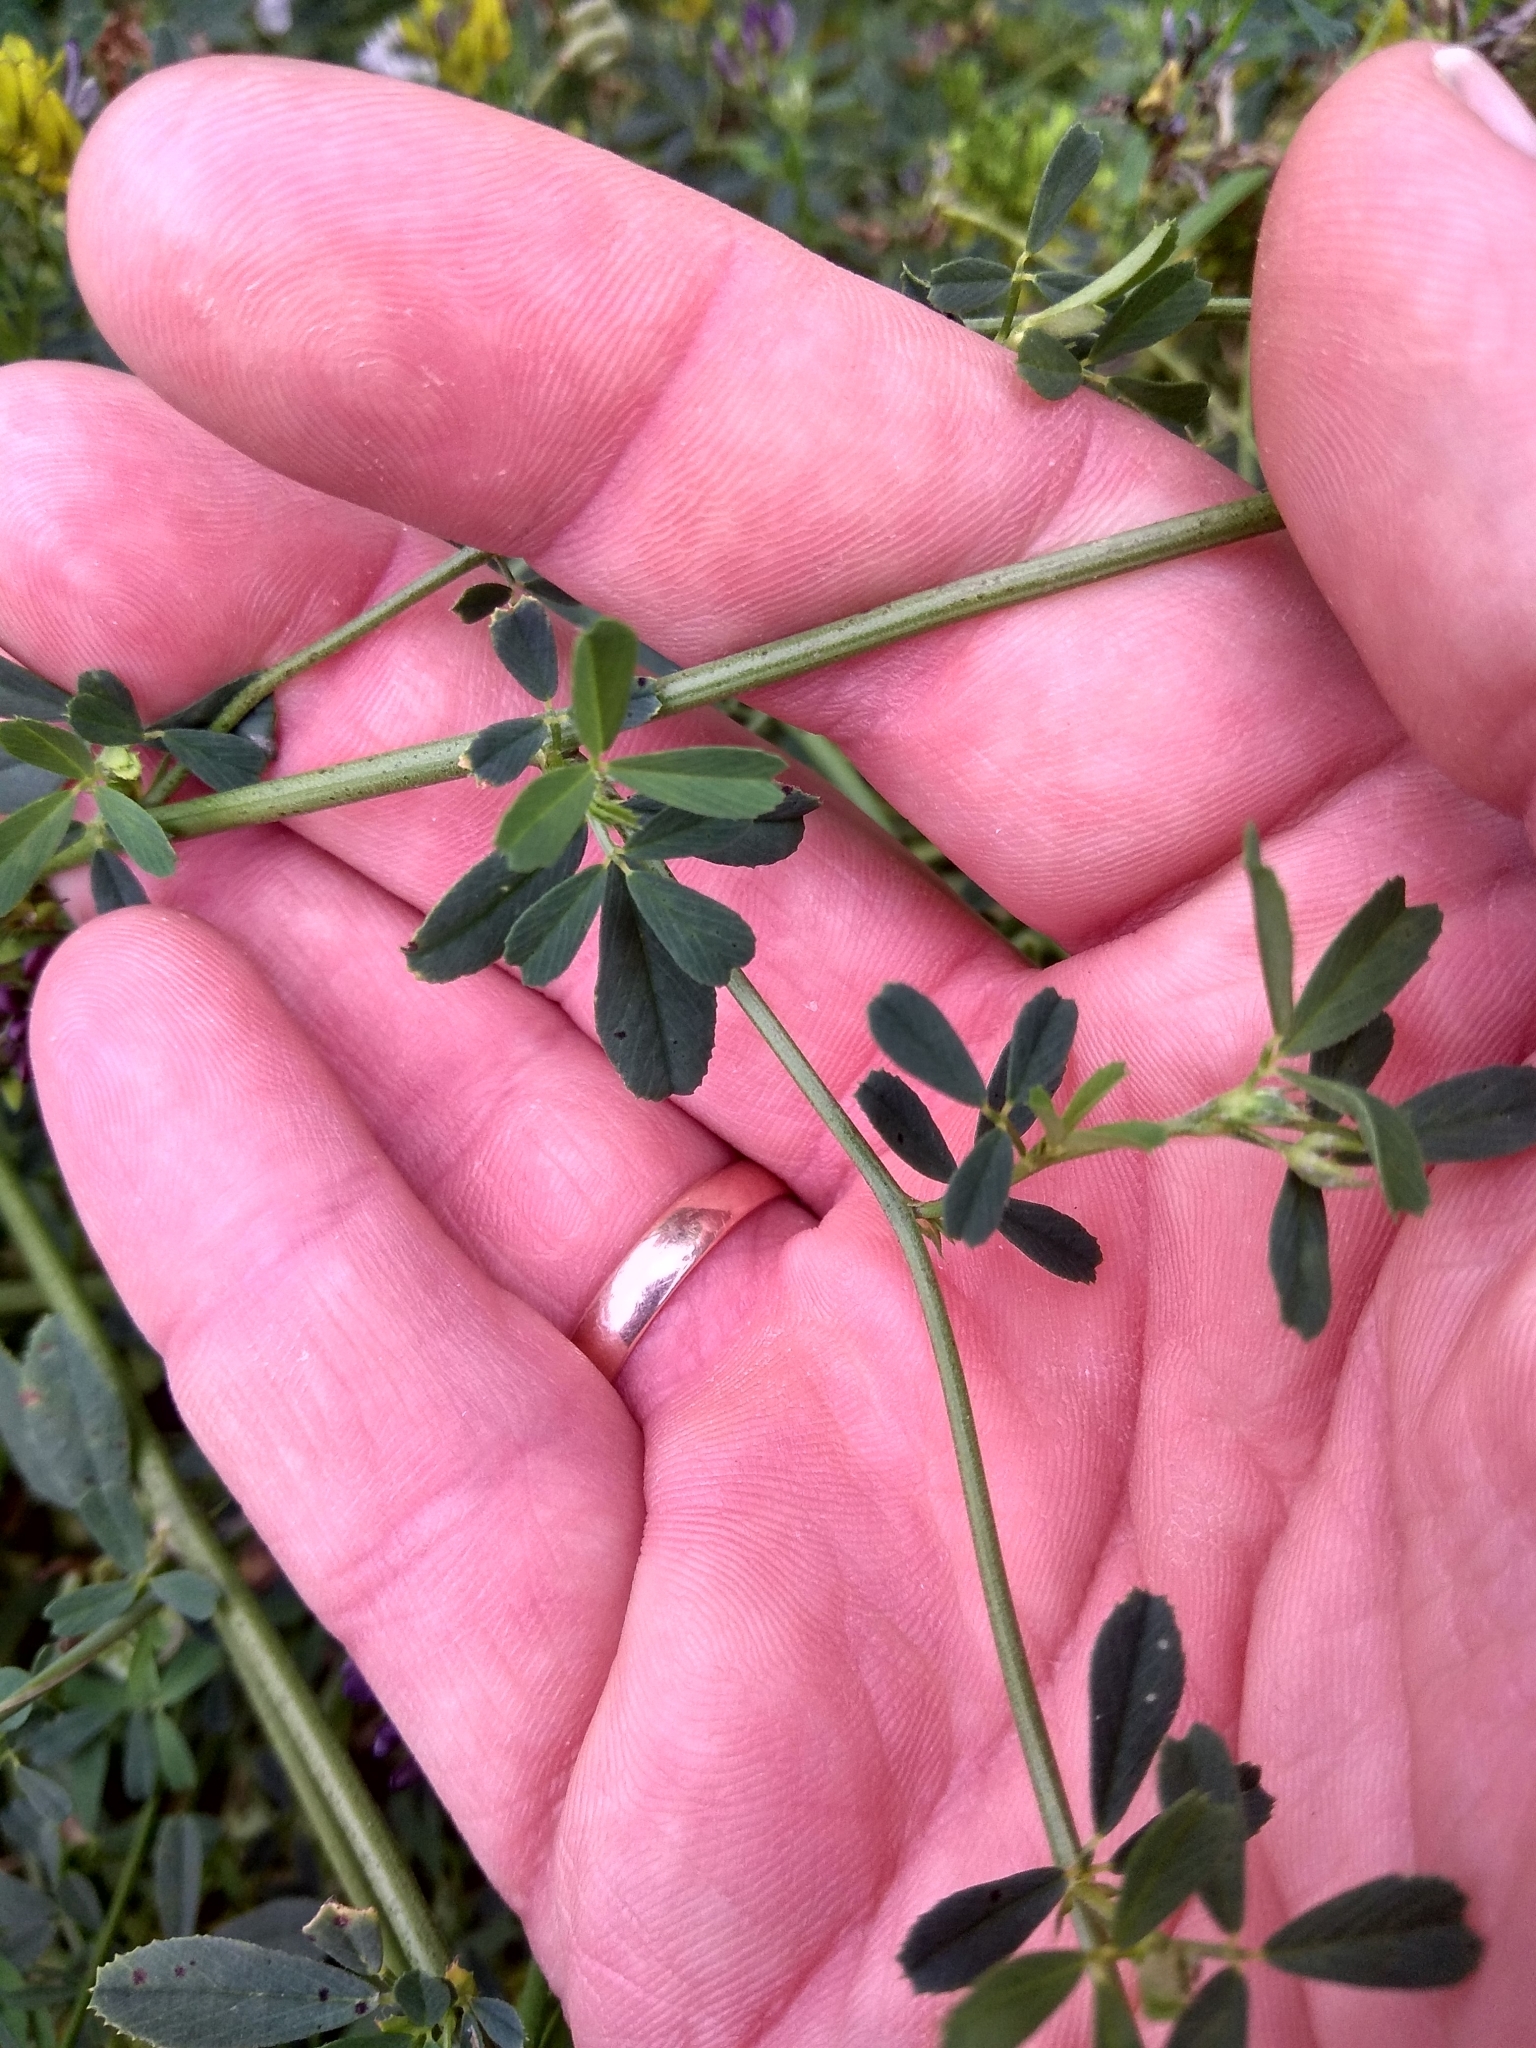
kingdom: Plantae
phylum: Tracheophyta
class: Magnoliopsida
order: Fabales
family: Fabaceae
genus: Medicago
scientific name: Medicago varia
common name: Sand lucerne
